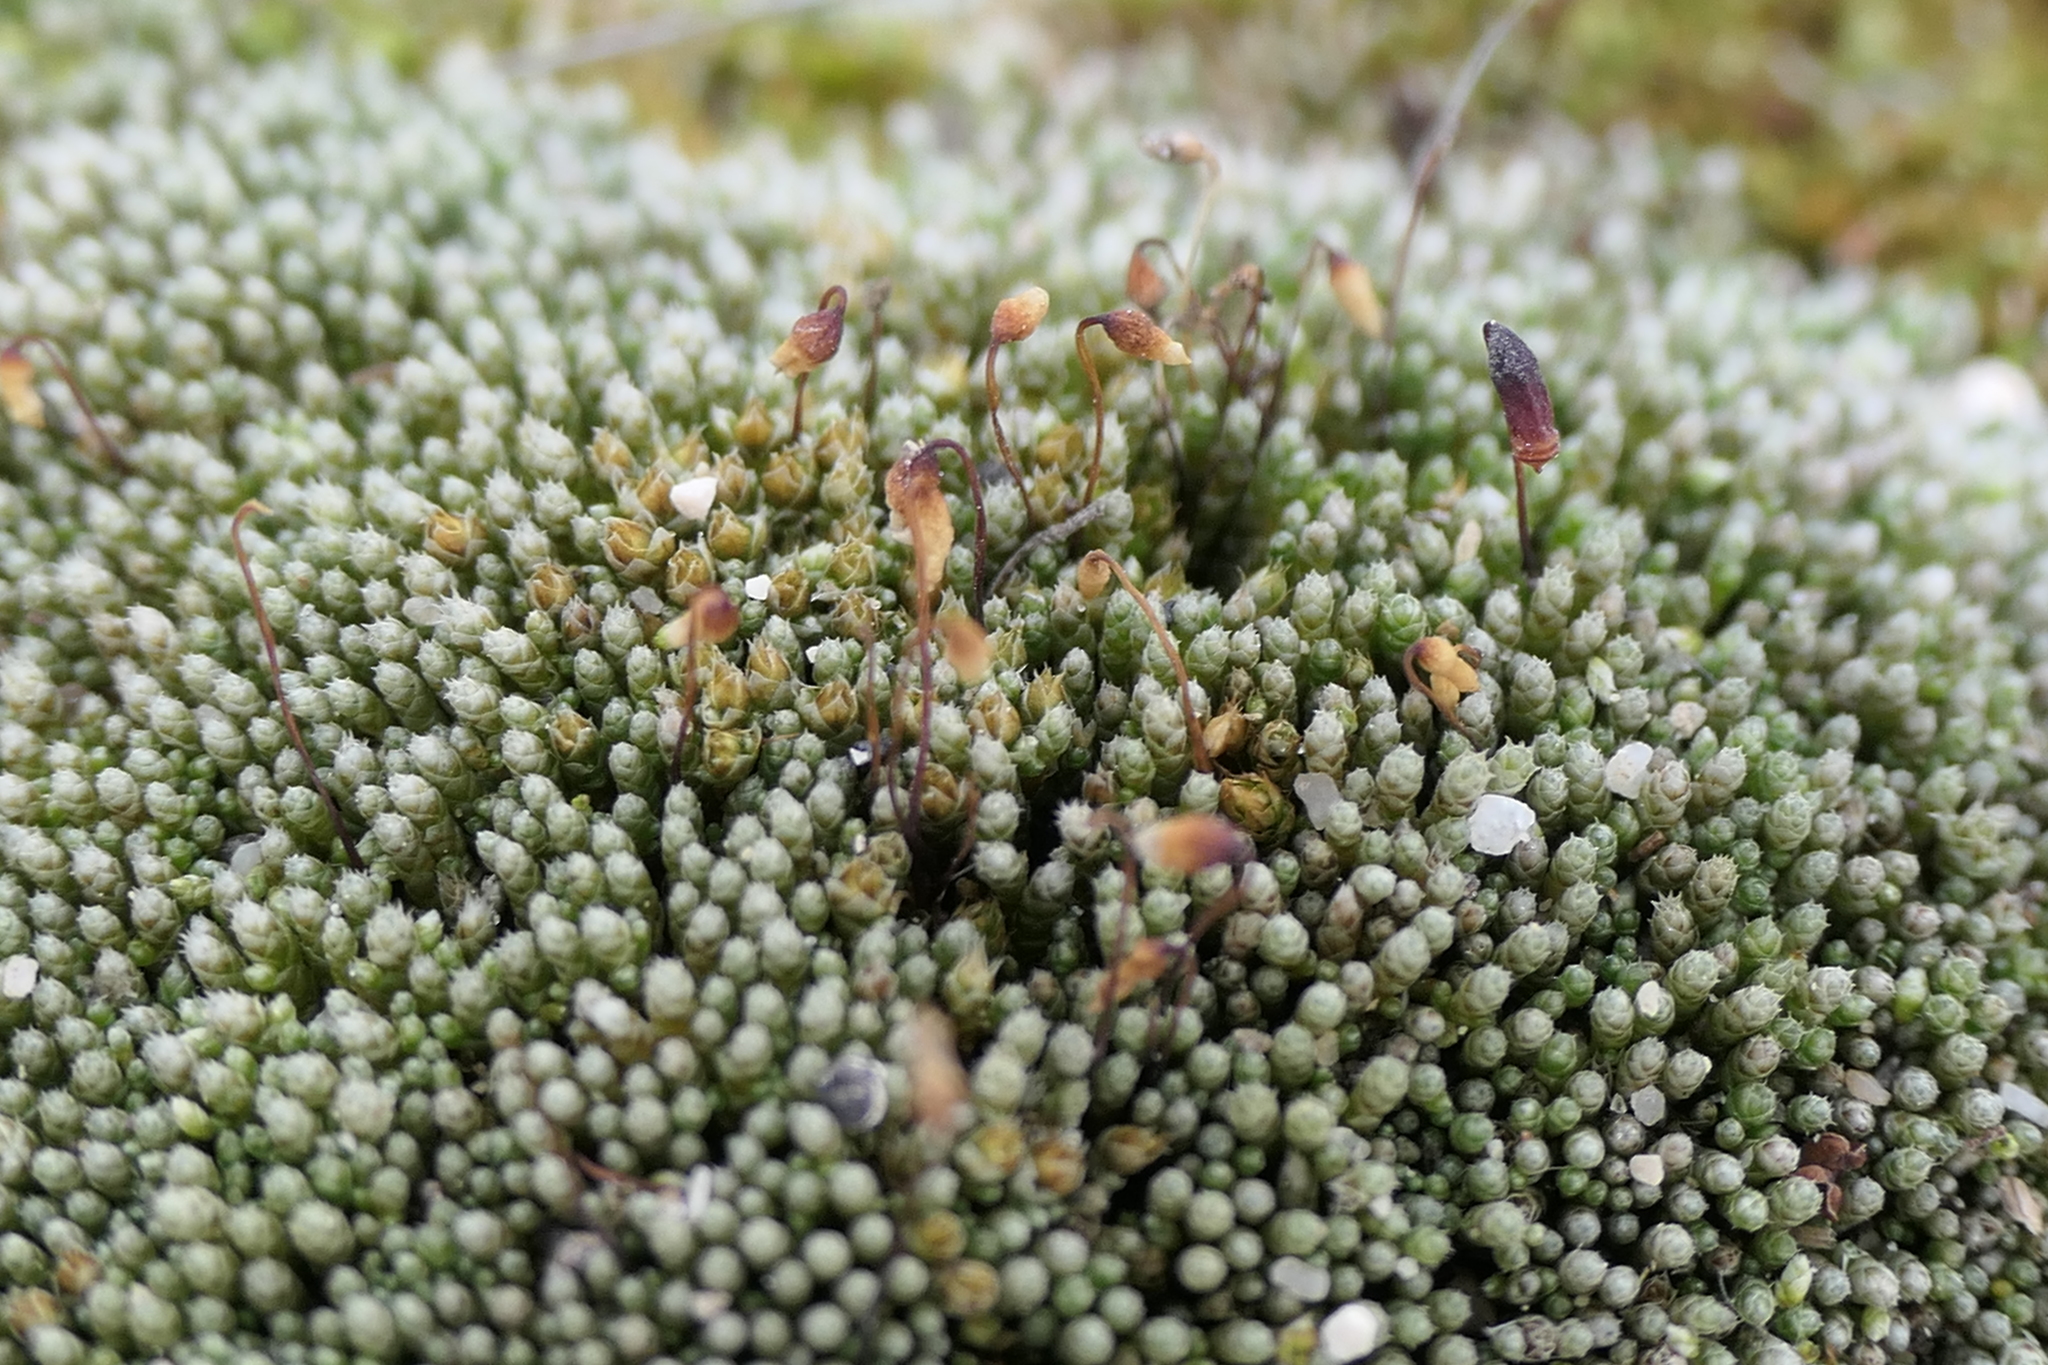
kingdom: Plantae
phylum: Bryophyta
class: Bryopsida
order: Bryales
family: Bryaceae
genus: Bryum
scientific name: Bryum argenteum
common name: Silver-moss
